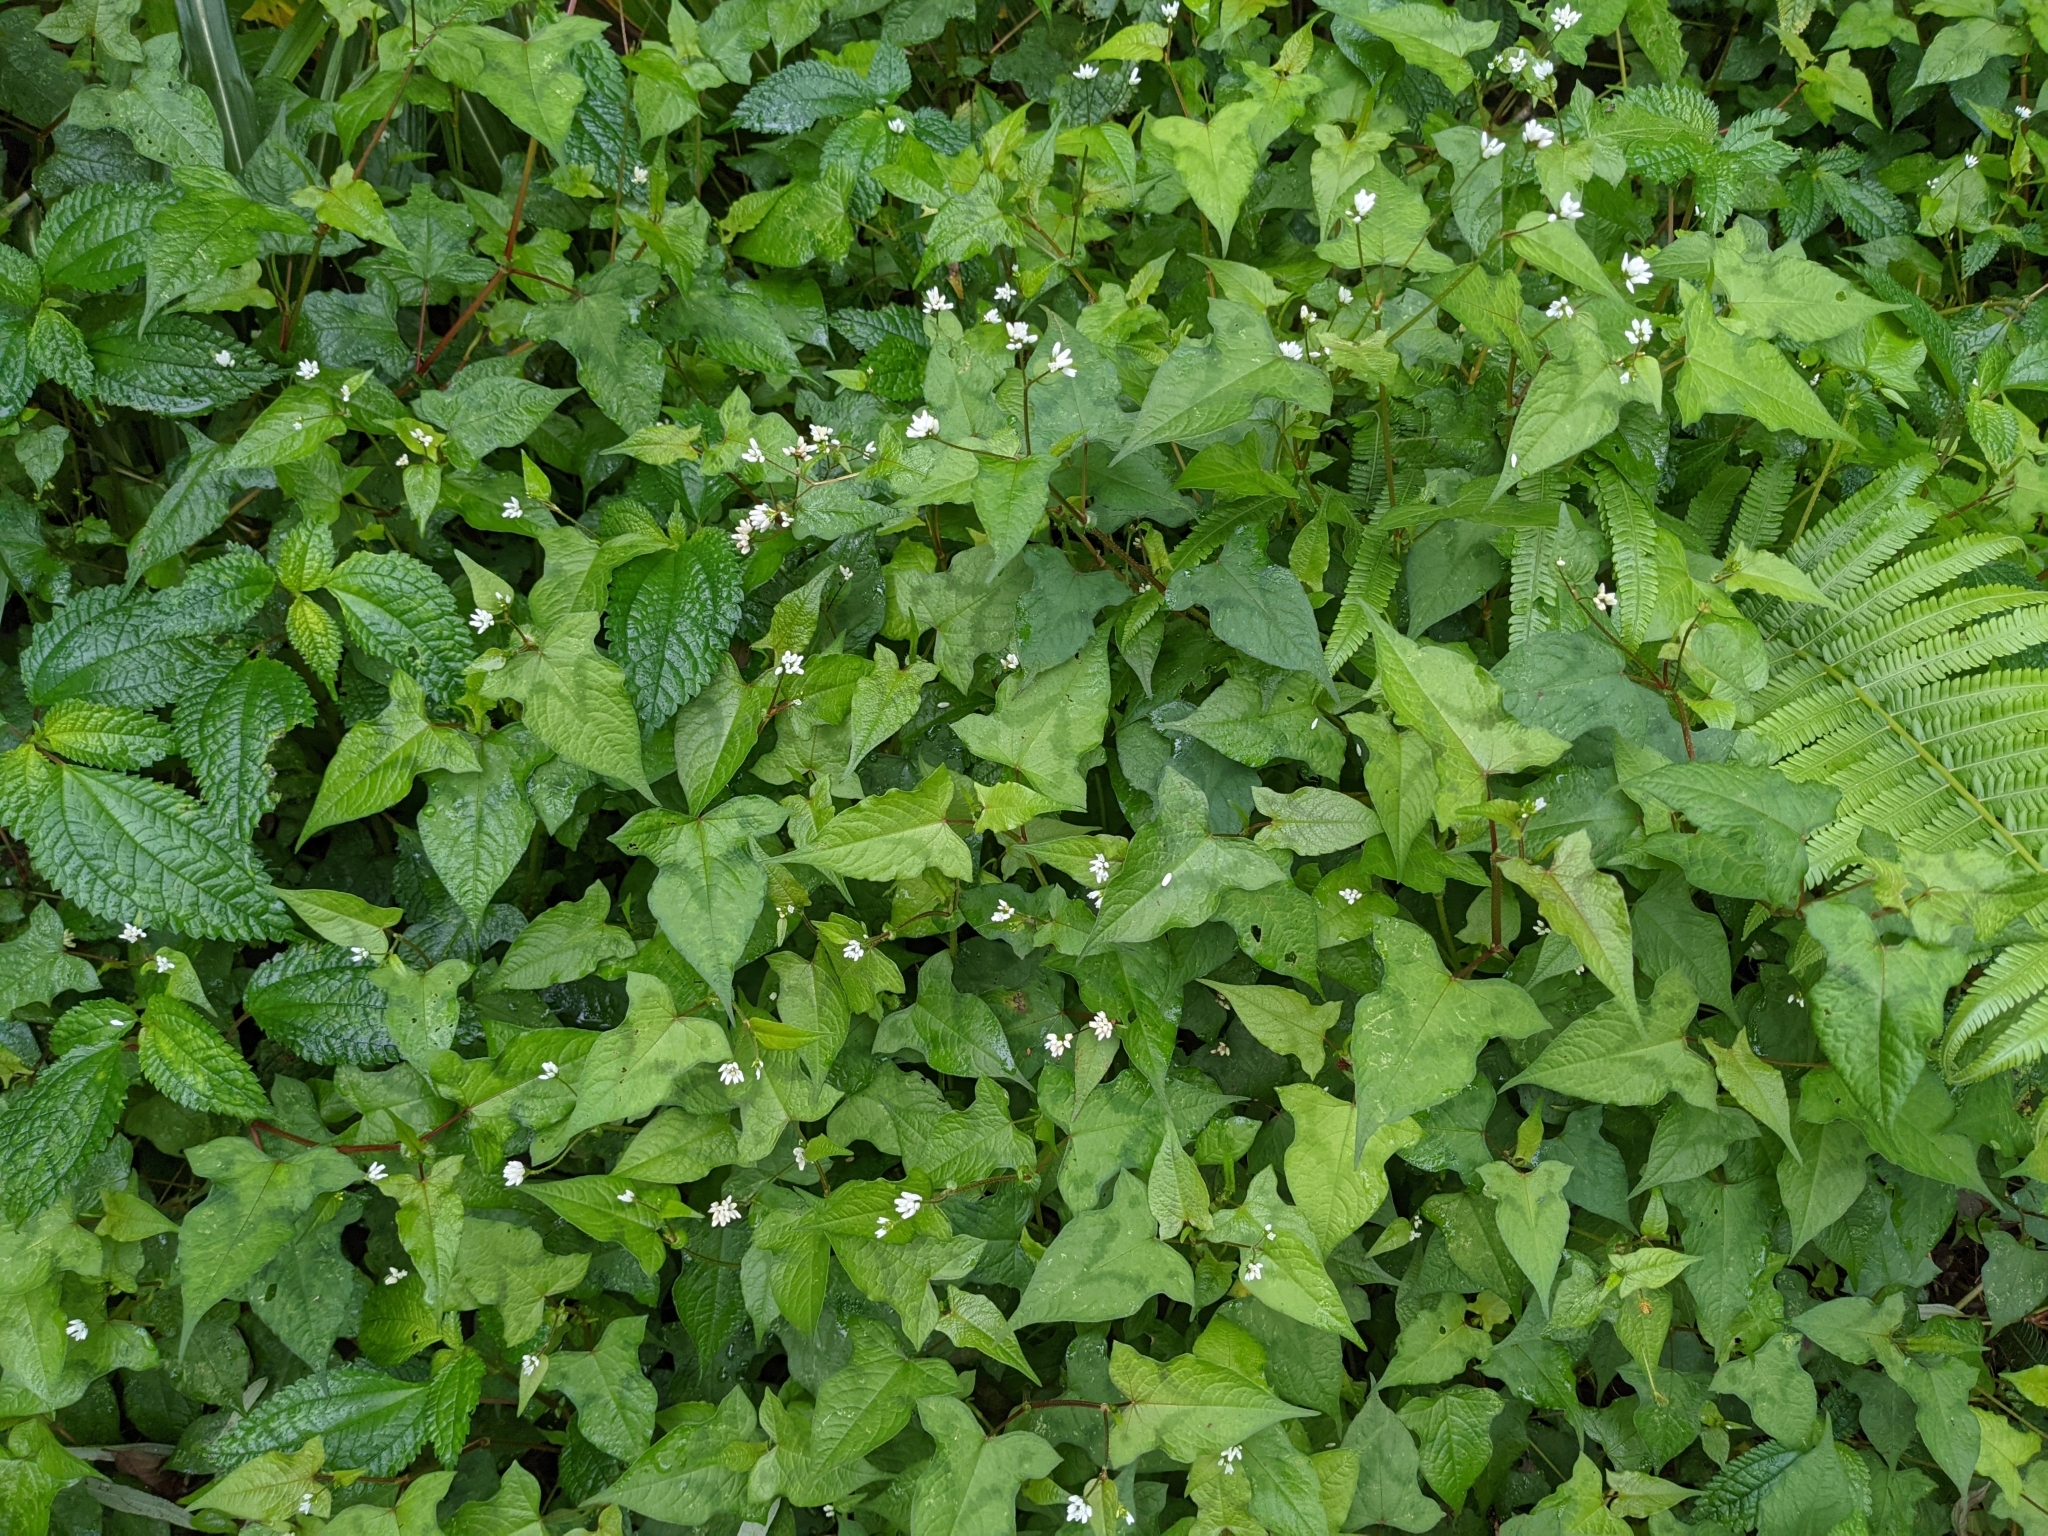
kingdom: Plantae
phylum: Tracheophyta
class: Magnoliopsida
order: Caryophyllales
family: Polygonaceae
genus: Persicaria
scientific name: Persicaria biconvexa
